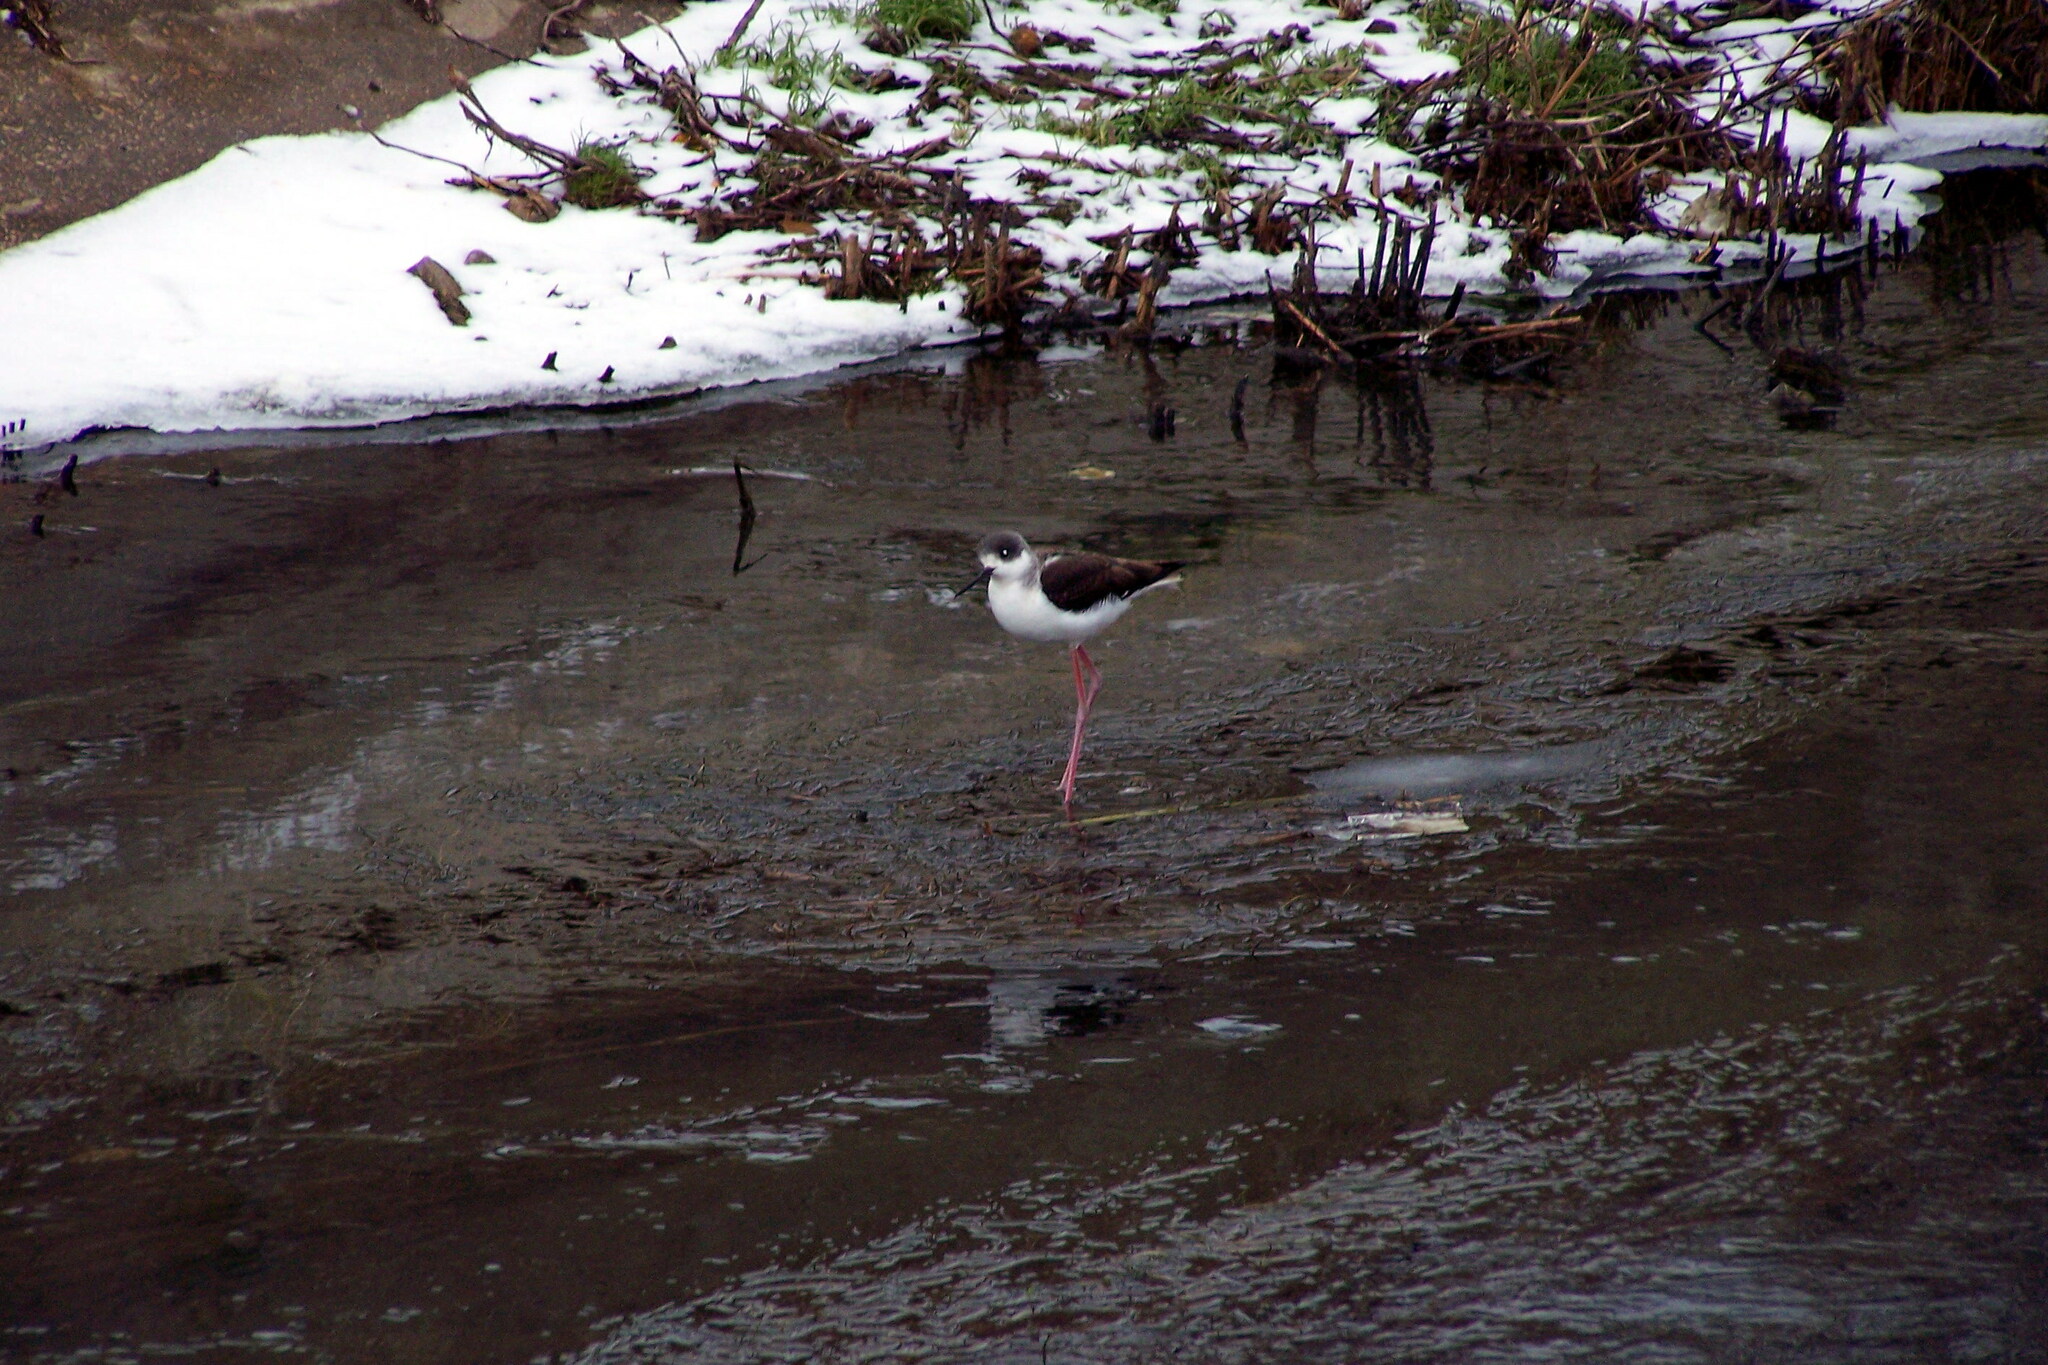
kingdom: Animalia
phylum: Chordata
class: Aves
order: Charadriiformes
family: Recurvirostridae
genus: Himantopus
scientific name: Himantopus himantopus
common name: Black-winged stilt
